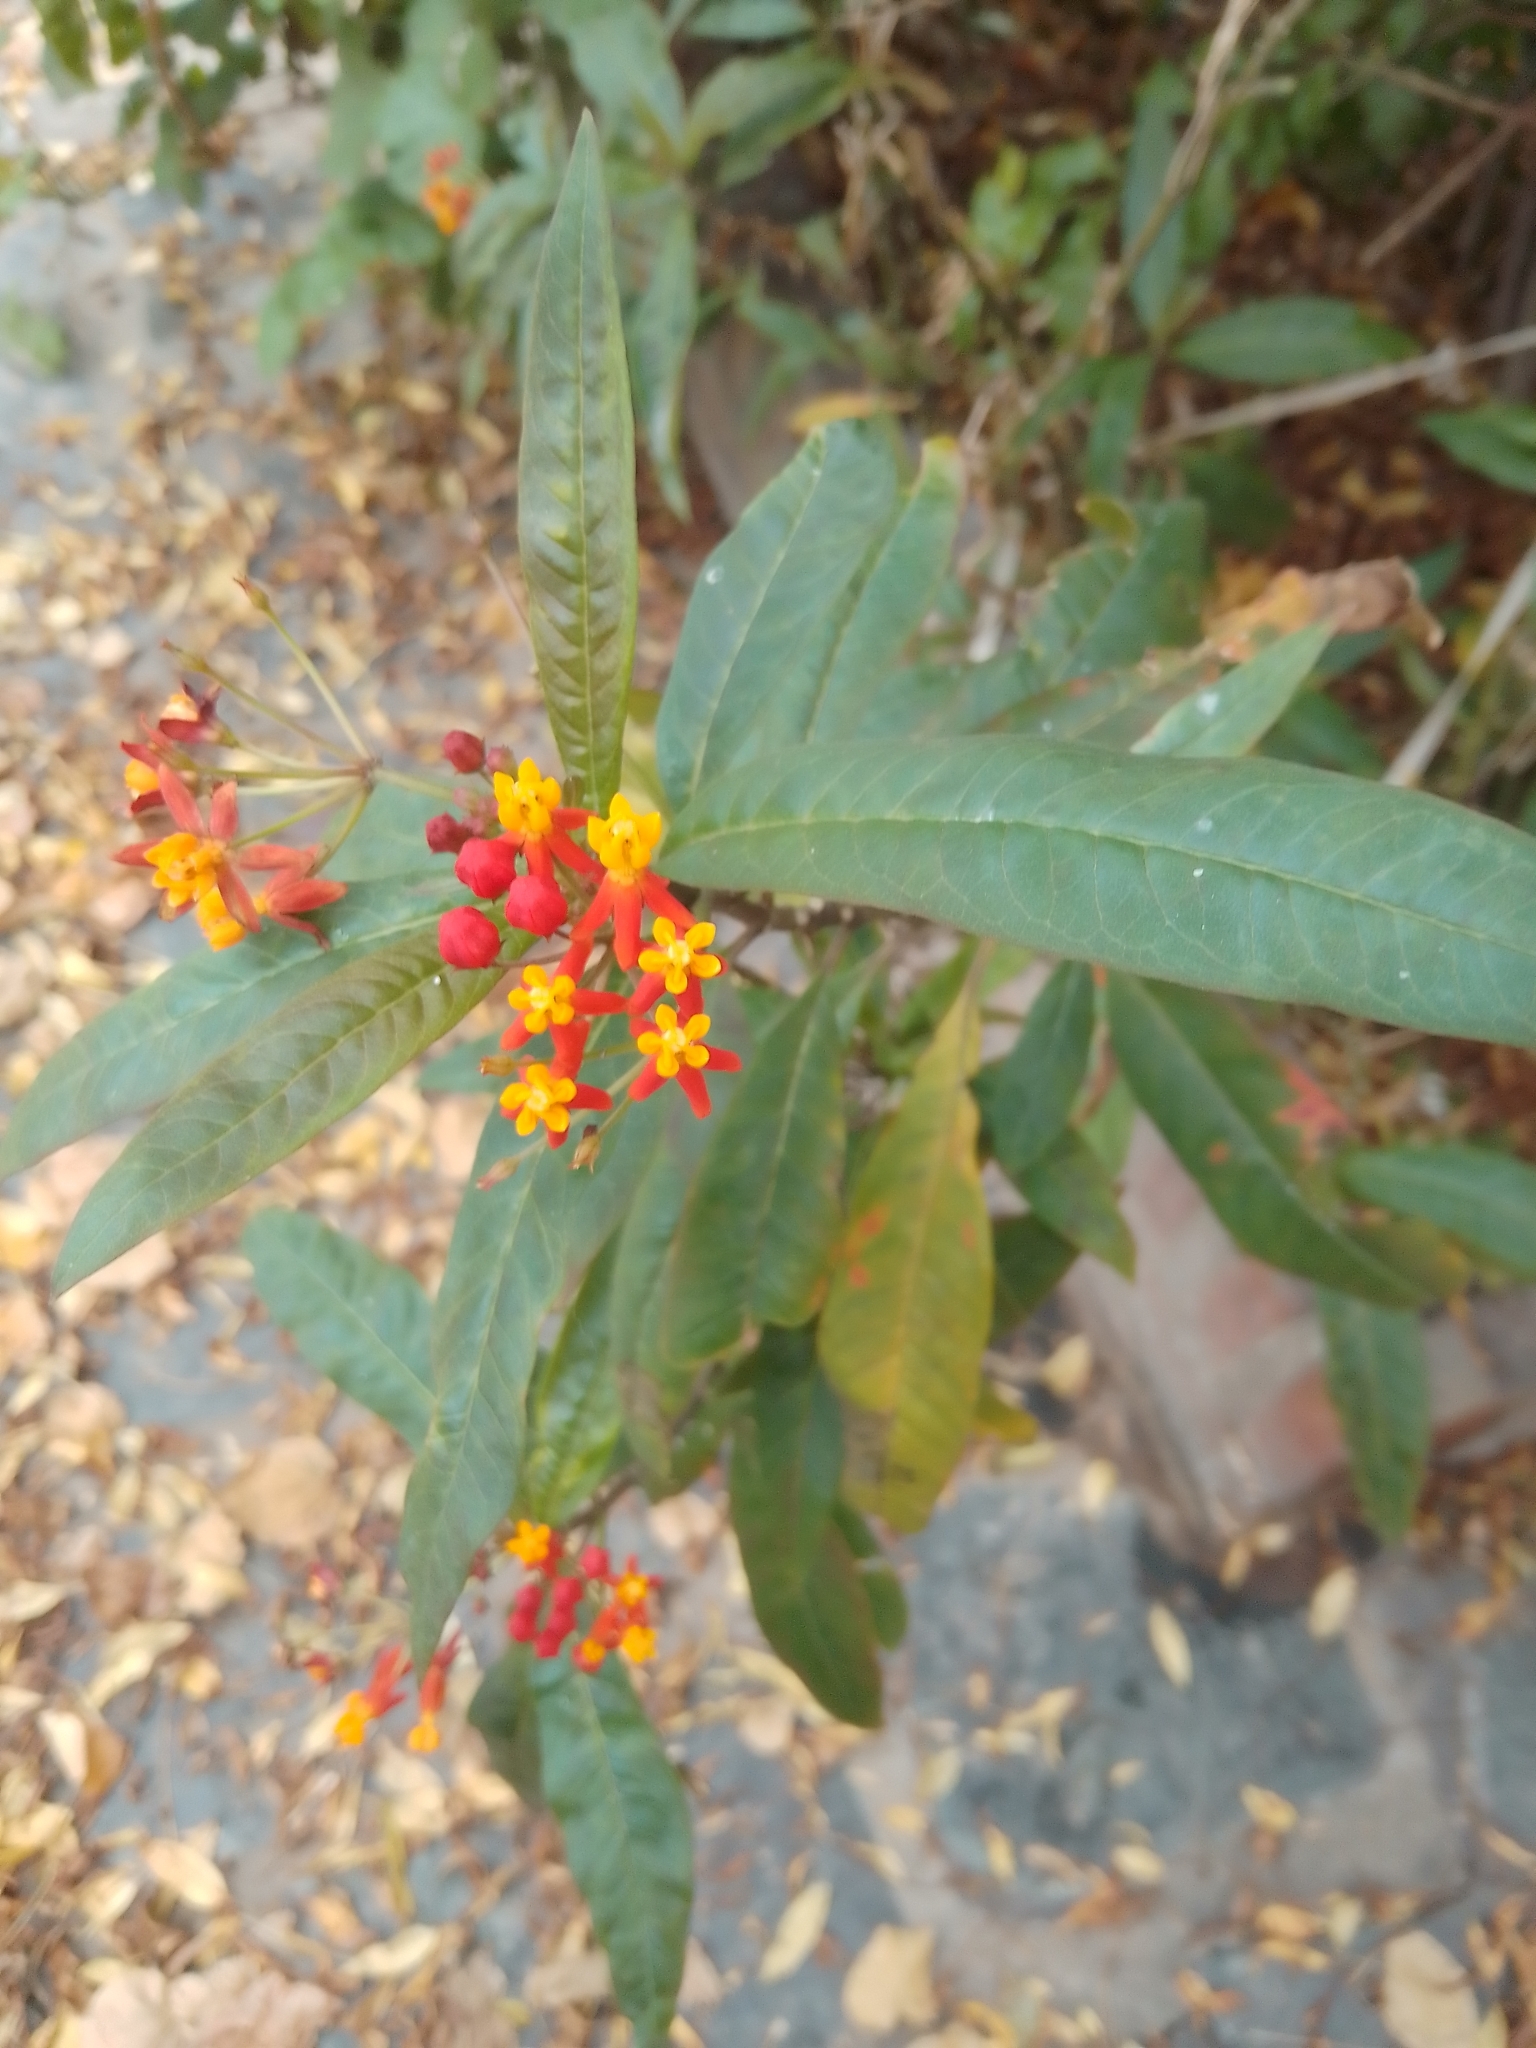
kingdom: Plantae
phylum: Tracheophyta
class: Magnoliopsida
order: Gentianales
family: Apocynaceae
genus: Asclepias
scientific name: Asclepias curassavica
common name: Bloodflower
